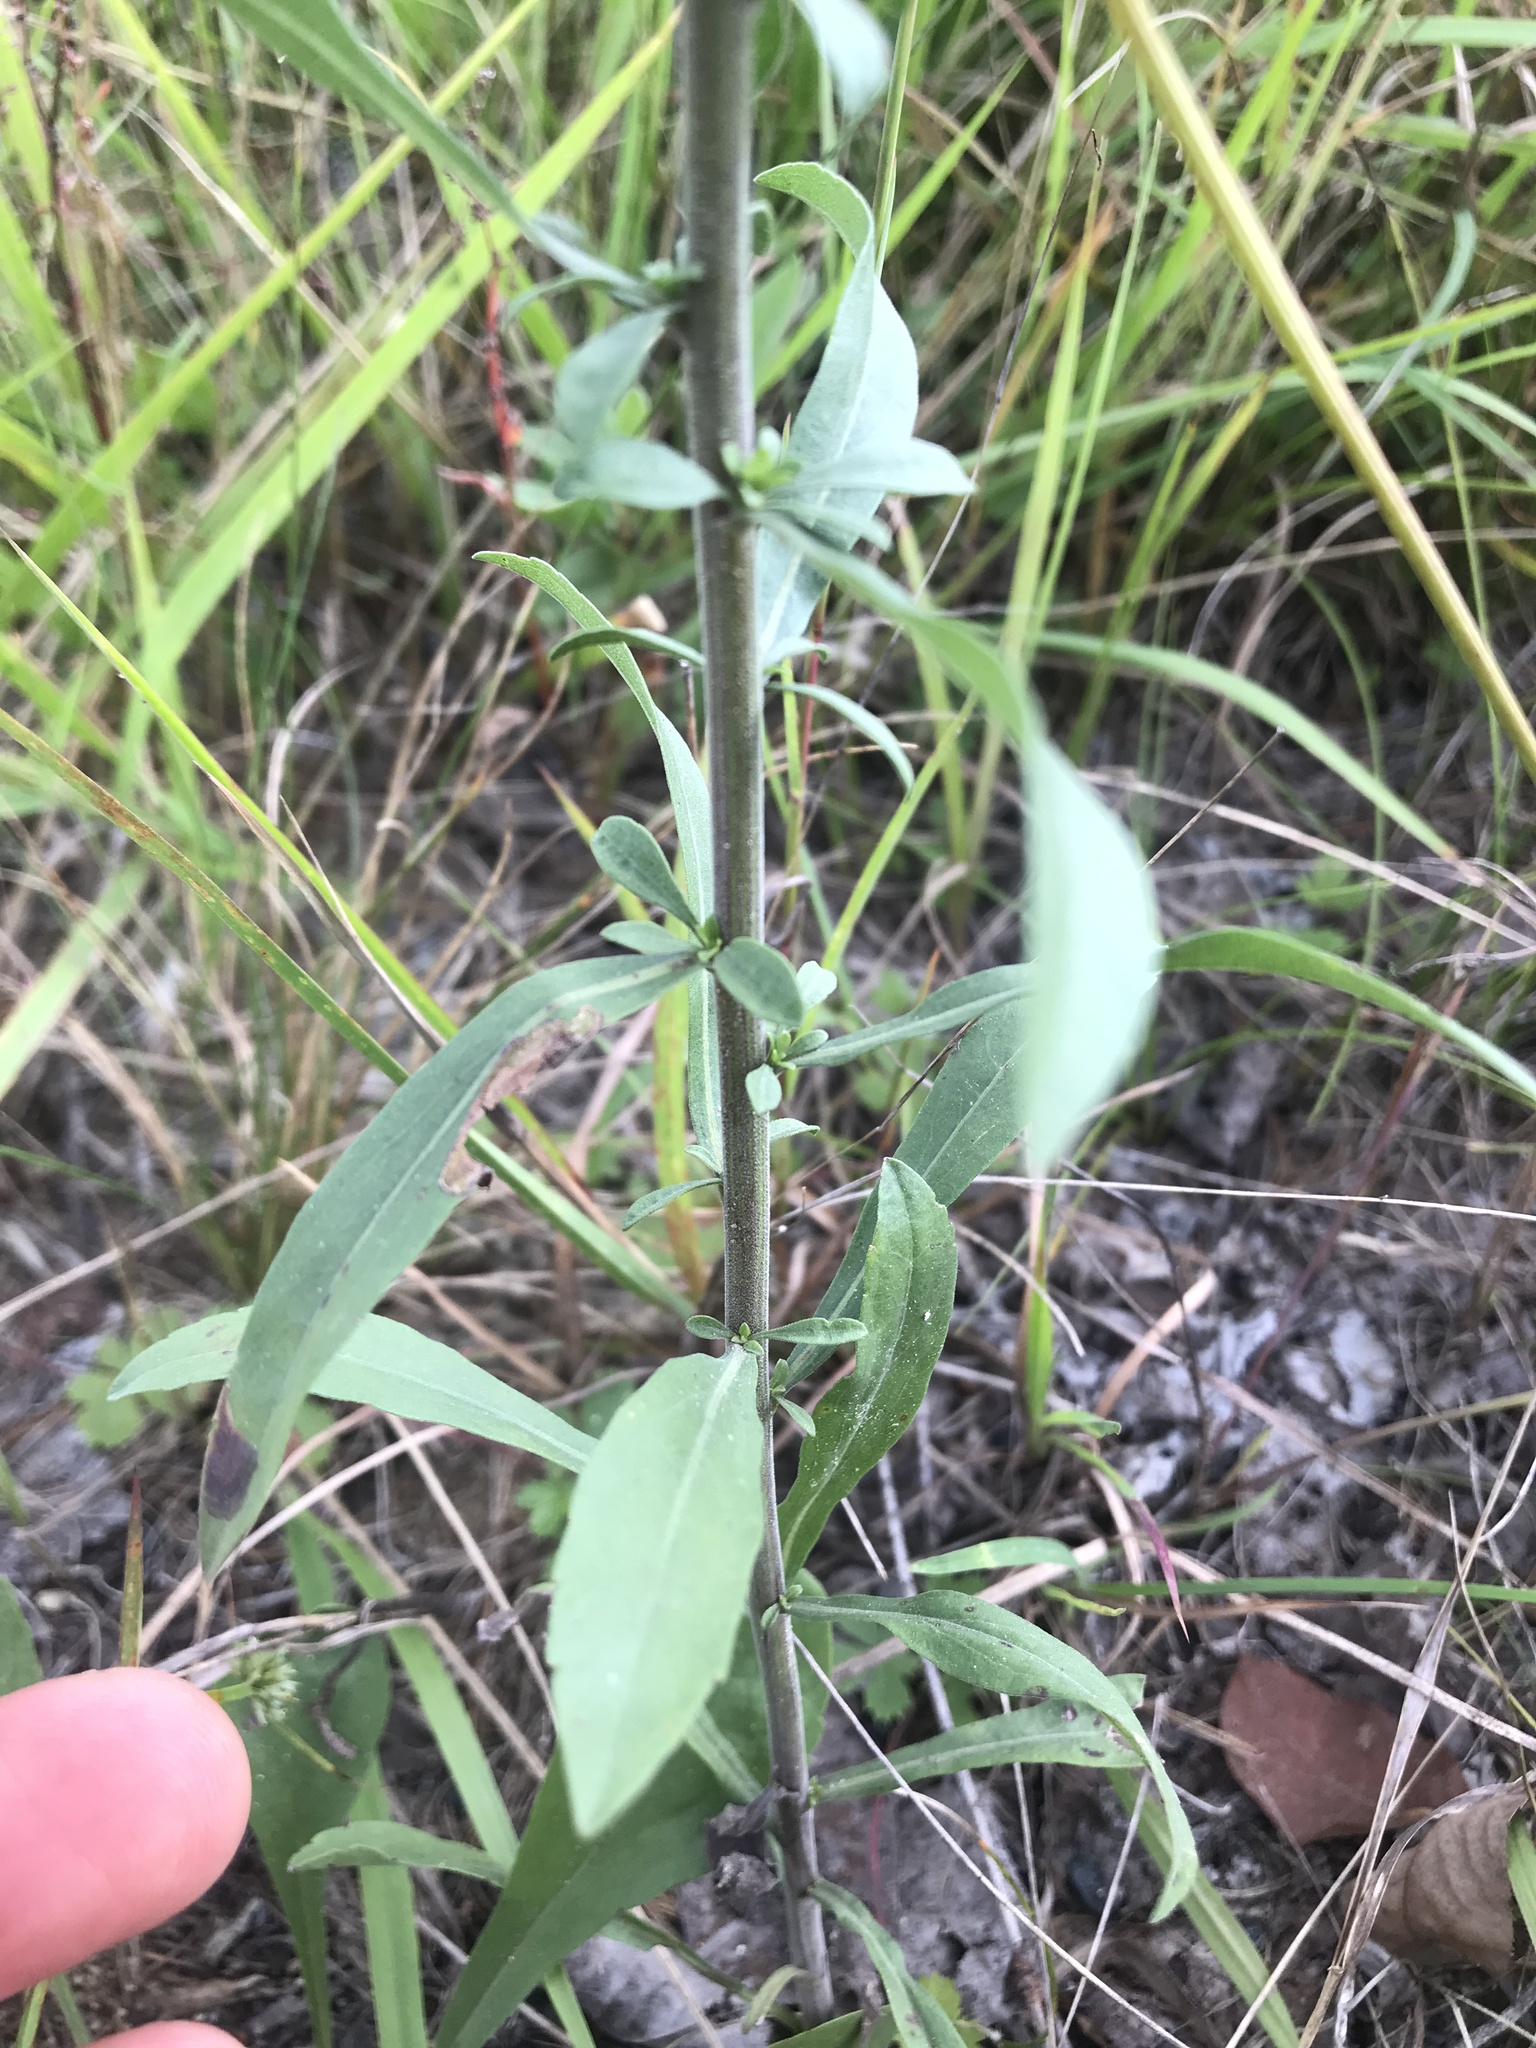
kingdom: Plantae
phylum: Tracheophyta
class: Magnoliopsida
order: Asterales
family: Asteraceae
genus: Solidago
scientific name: Solidago nemoralis
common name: Grey goldenrod
